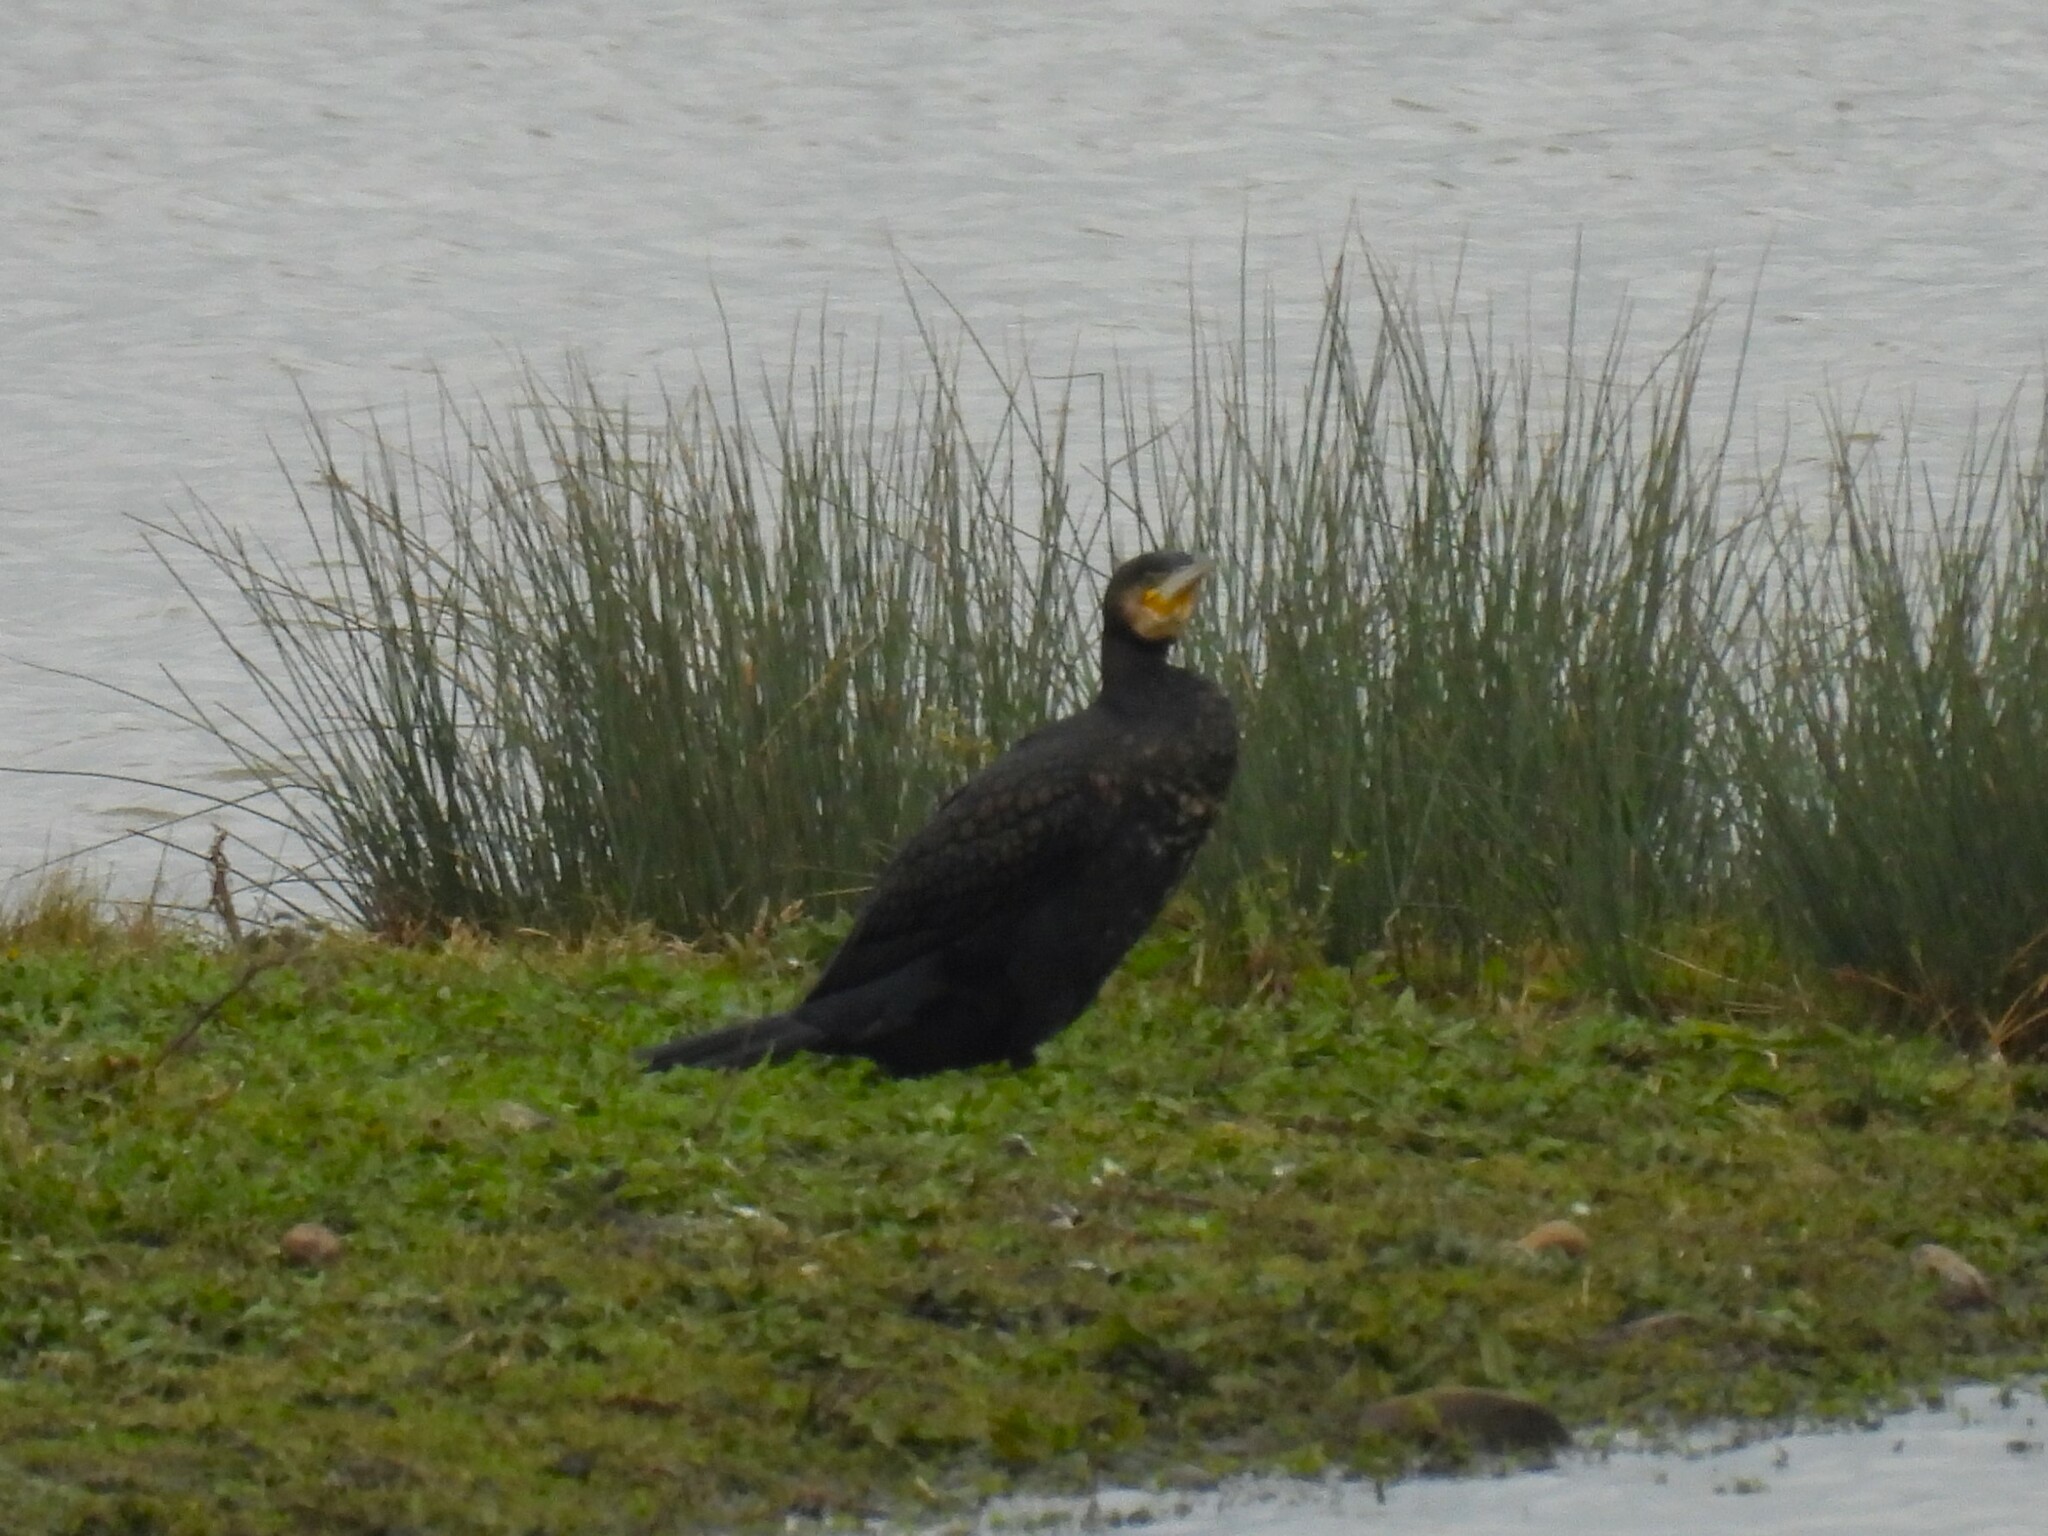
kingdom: Animalia
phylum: Chordata
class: Aves
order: Suliformes
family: Phalacrocoracidae
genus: Phalacrocorax
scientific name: Phalacrocorax carbo
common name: Great cormorant
